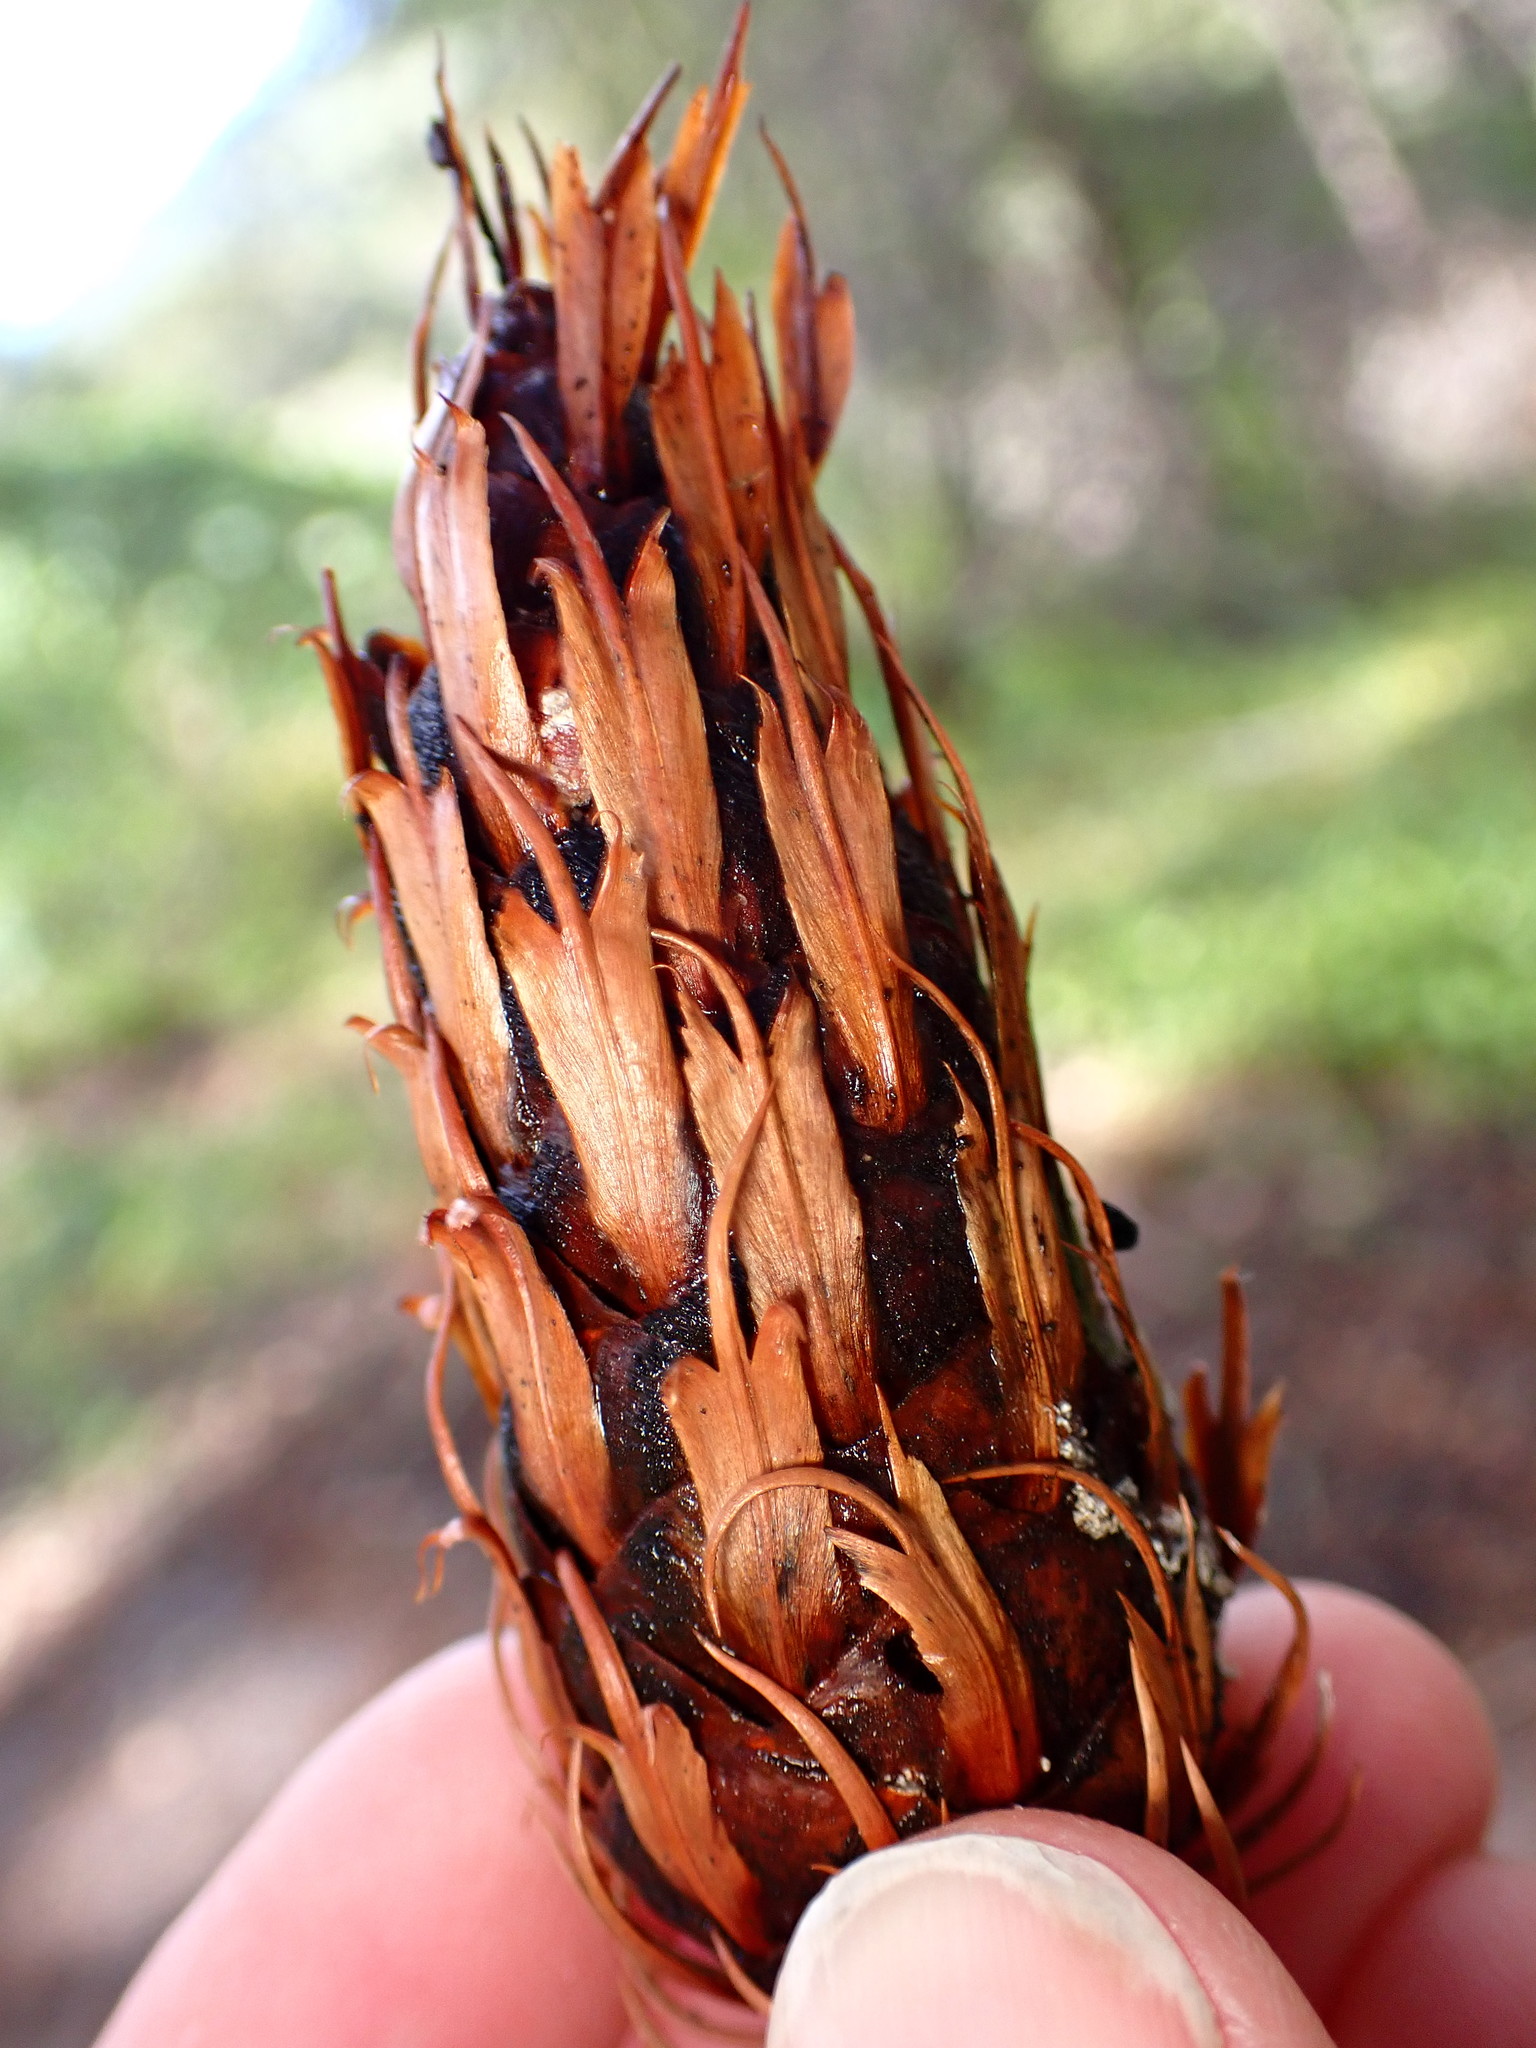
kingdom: Plantae
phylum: Tracheophyta
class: Pinopsida
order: Pinales
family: Pinaceae
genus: Pseudotsuga
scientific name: Pseudotsuga menziesii
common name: Douglas fir
